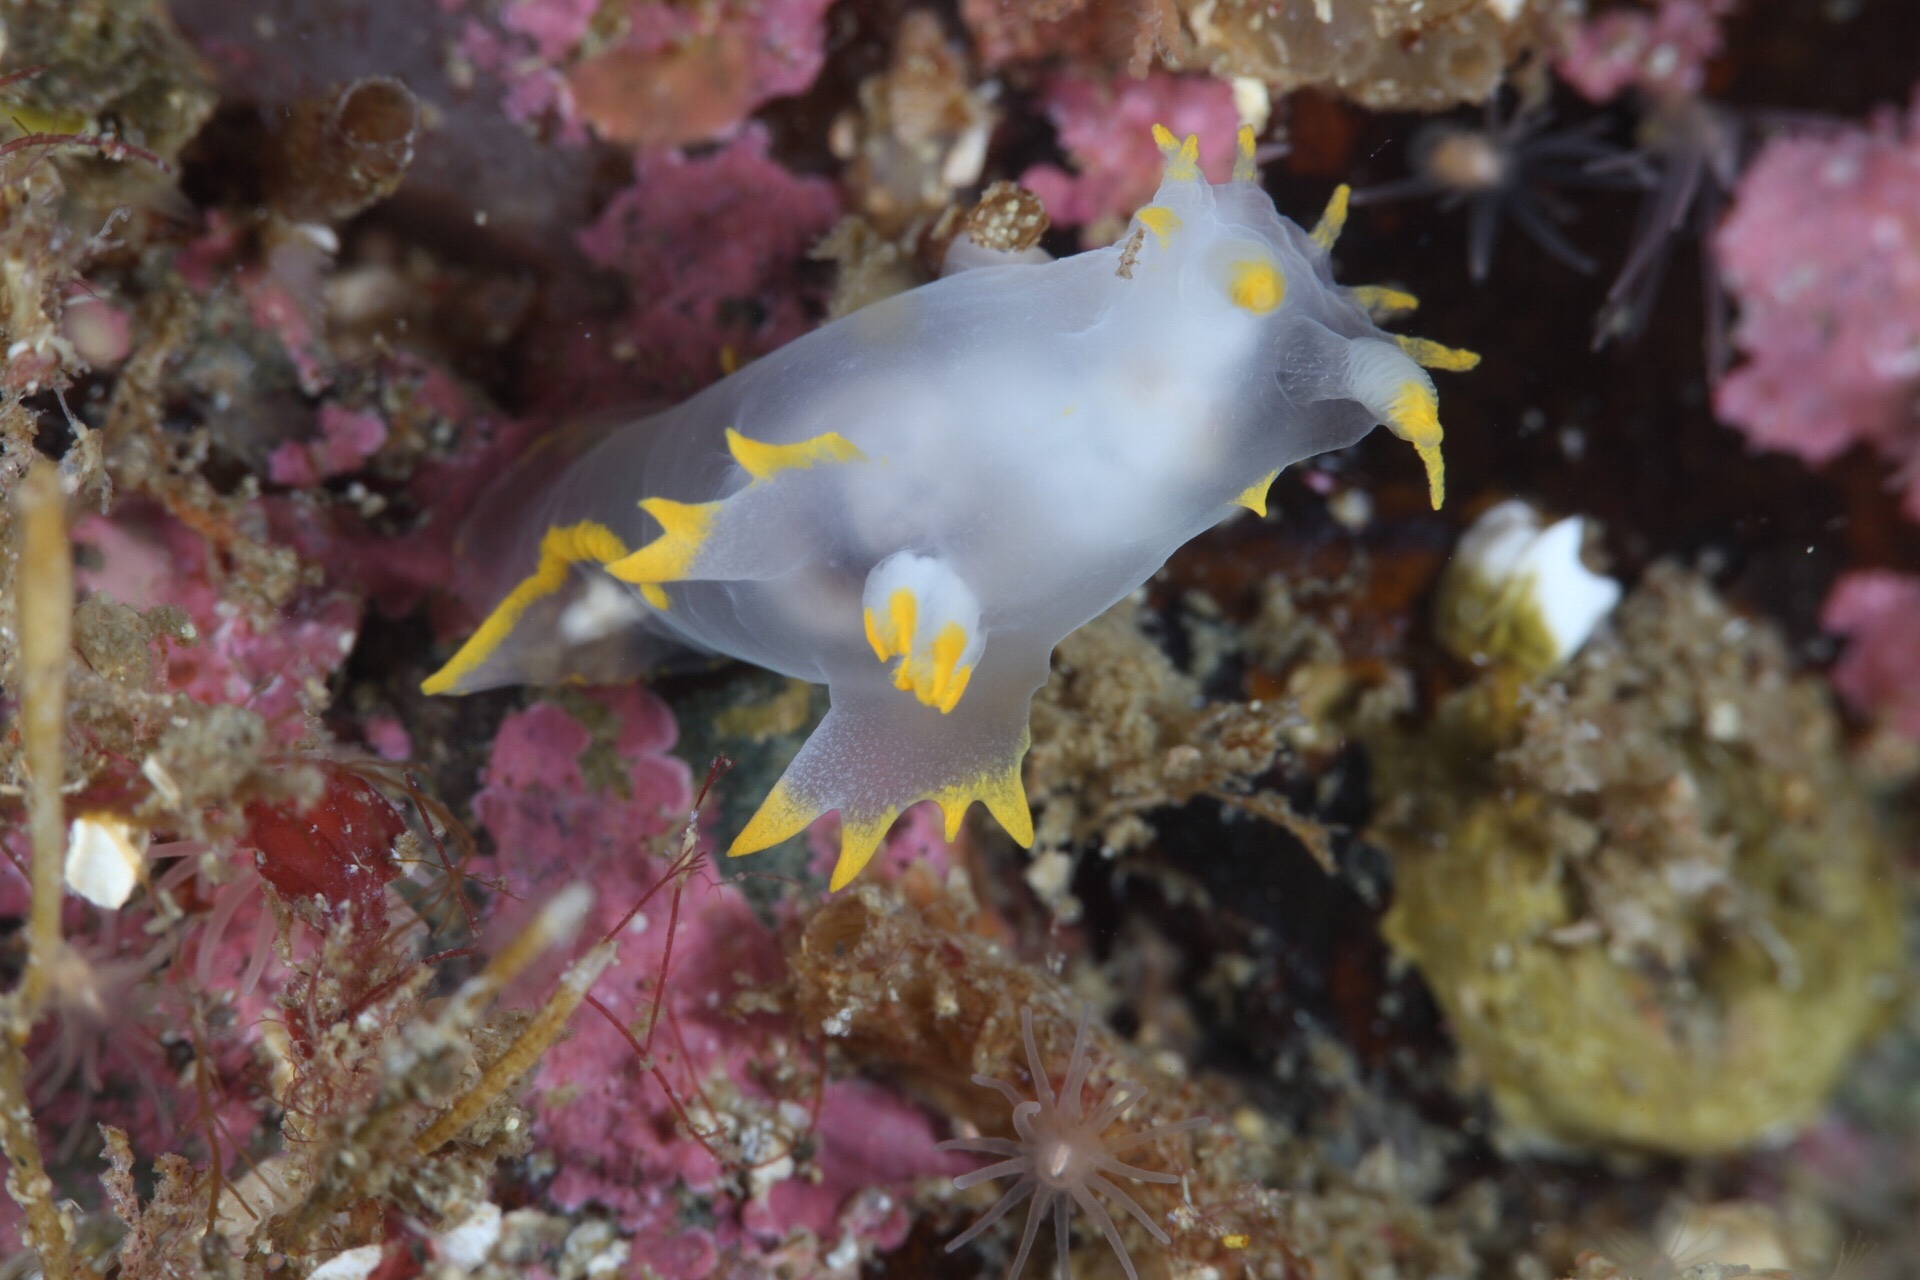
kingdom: Animalia
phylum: Mollusca
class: Gastropoda
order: Nudibranchia
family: Polyceridae
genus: Polycera
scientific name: Polycera faeroensis
